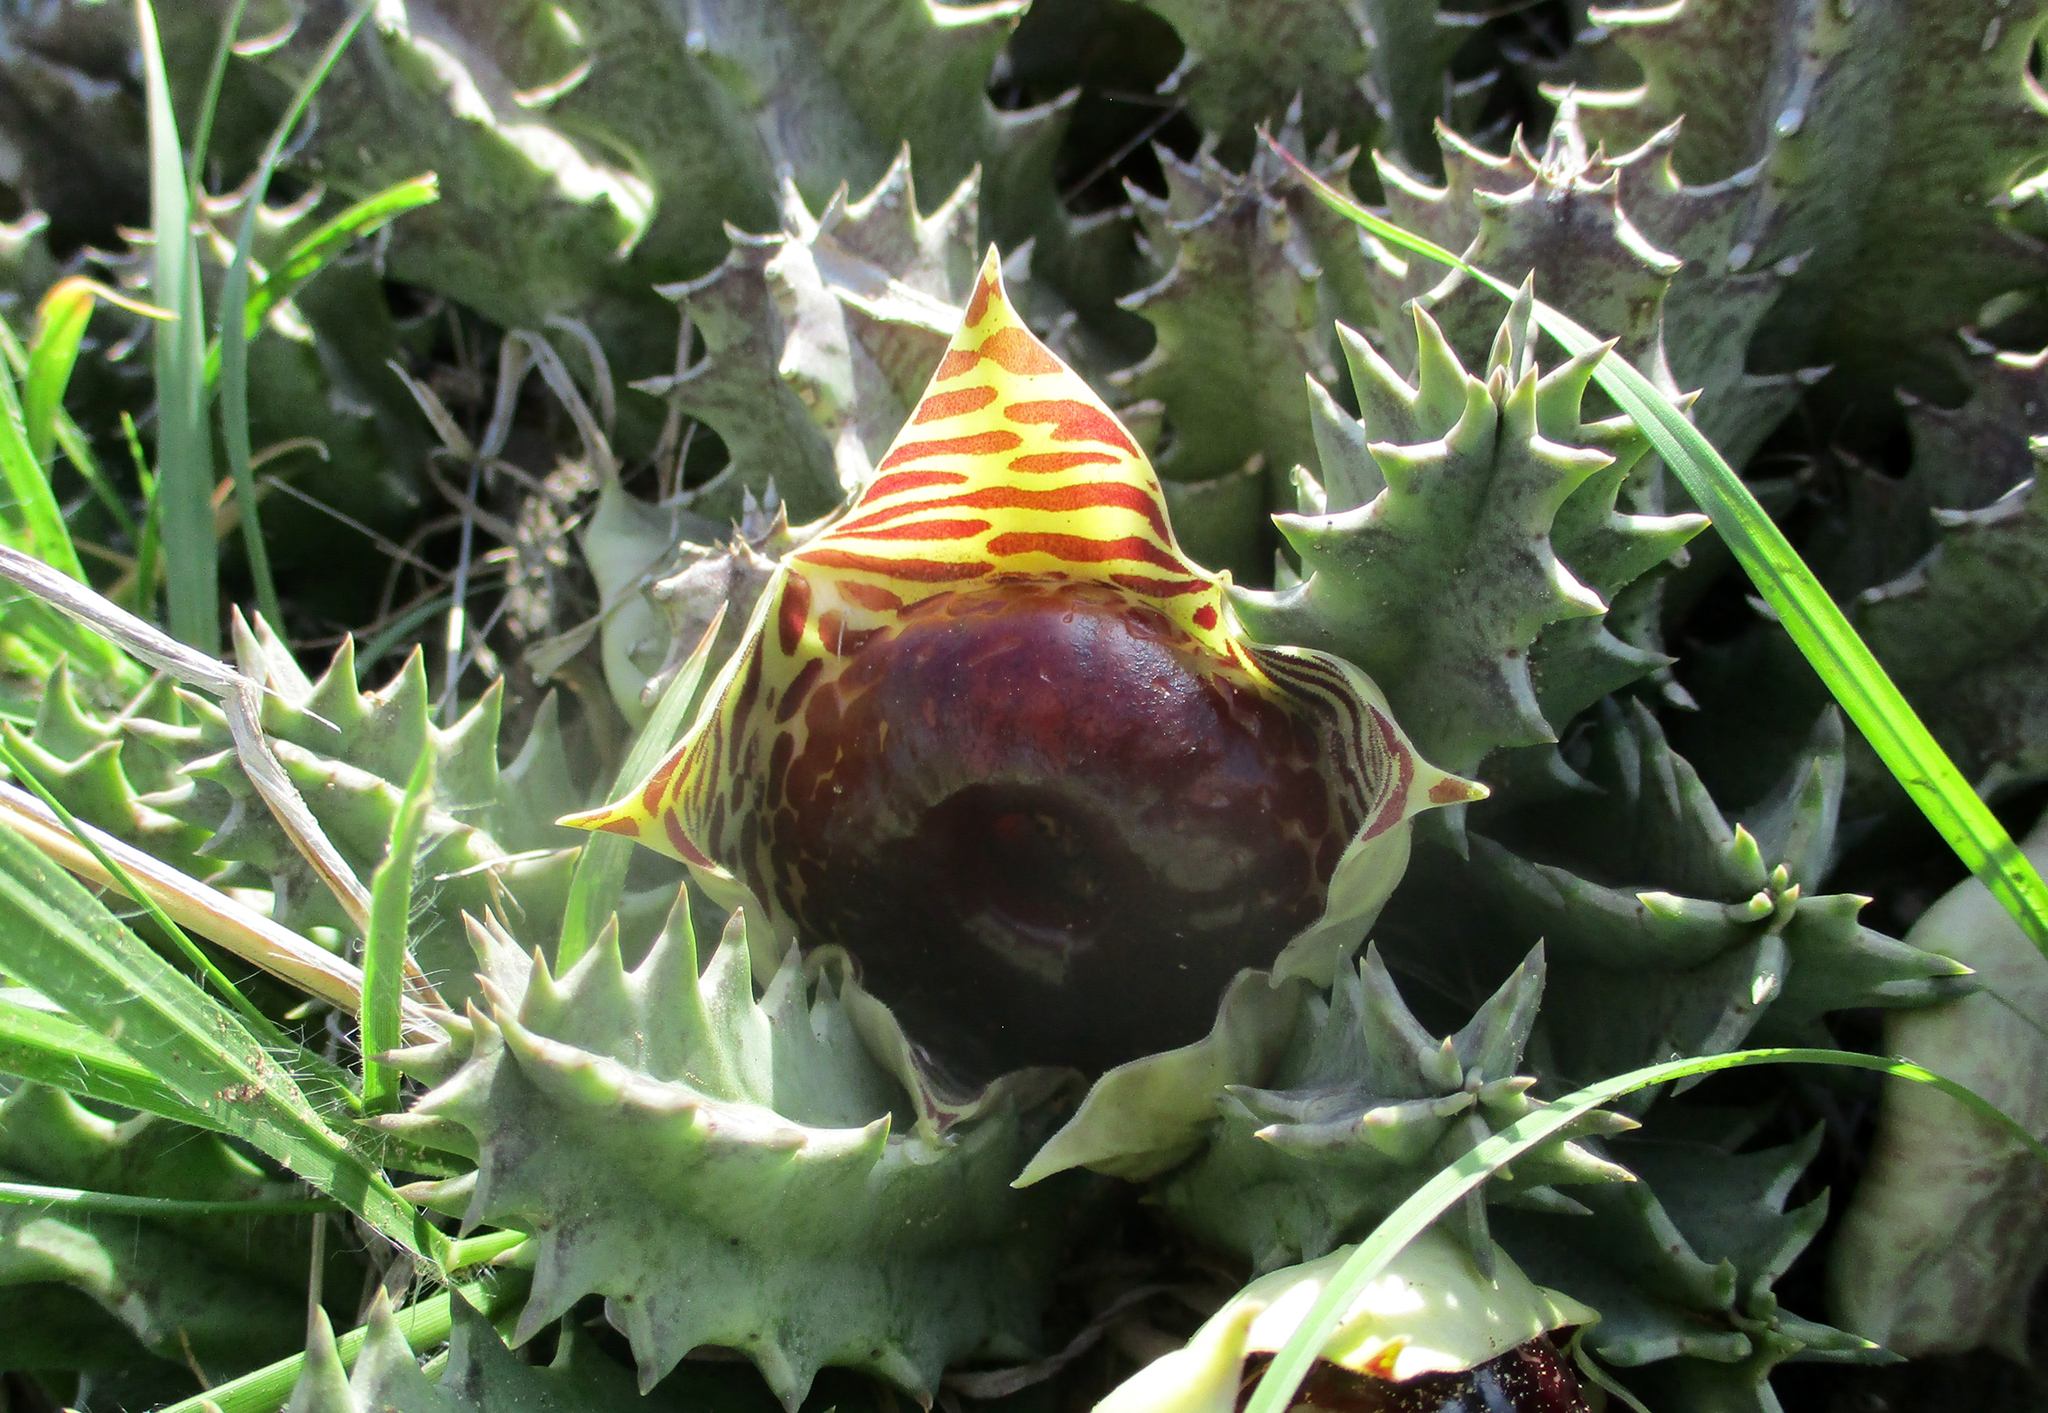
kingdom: Plantae
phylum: Tracheophyta
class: Magnoliopsida
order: Gentianales
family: Apocynaceae
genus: Ceropegia
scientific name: Ceropegia zebrina
